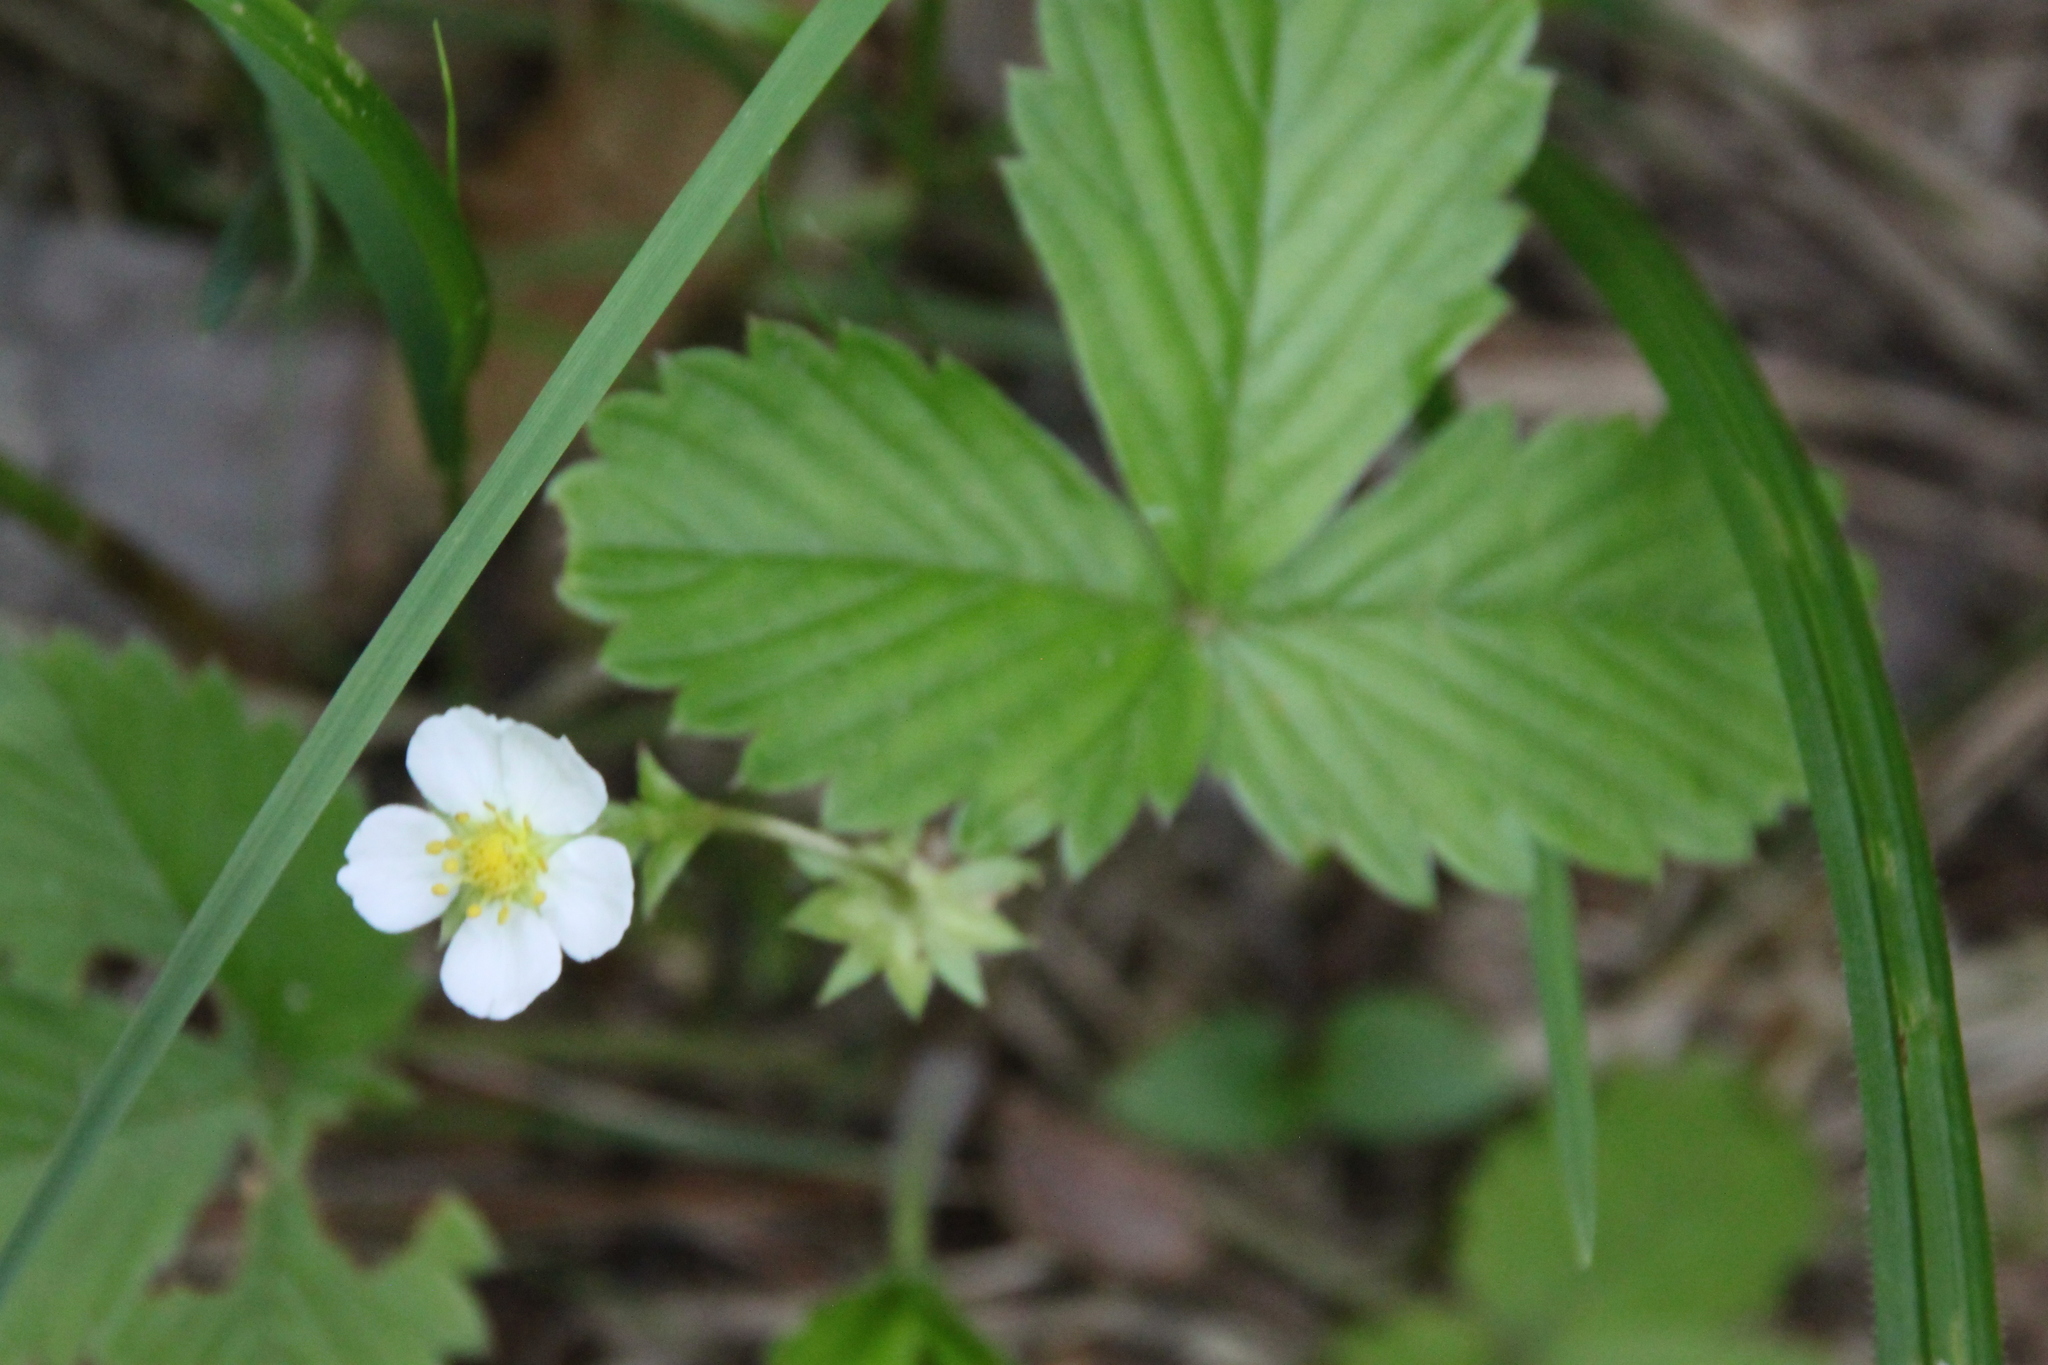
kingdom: Plantae
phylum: Tracheophyta
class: Magnoliopsida
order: Rosales
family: Rosaceae
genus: Fragaria
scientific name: Fragaria vesca
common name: Wild strawberry
